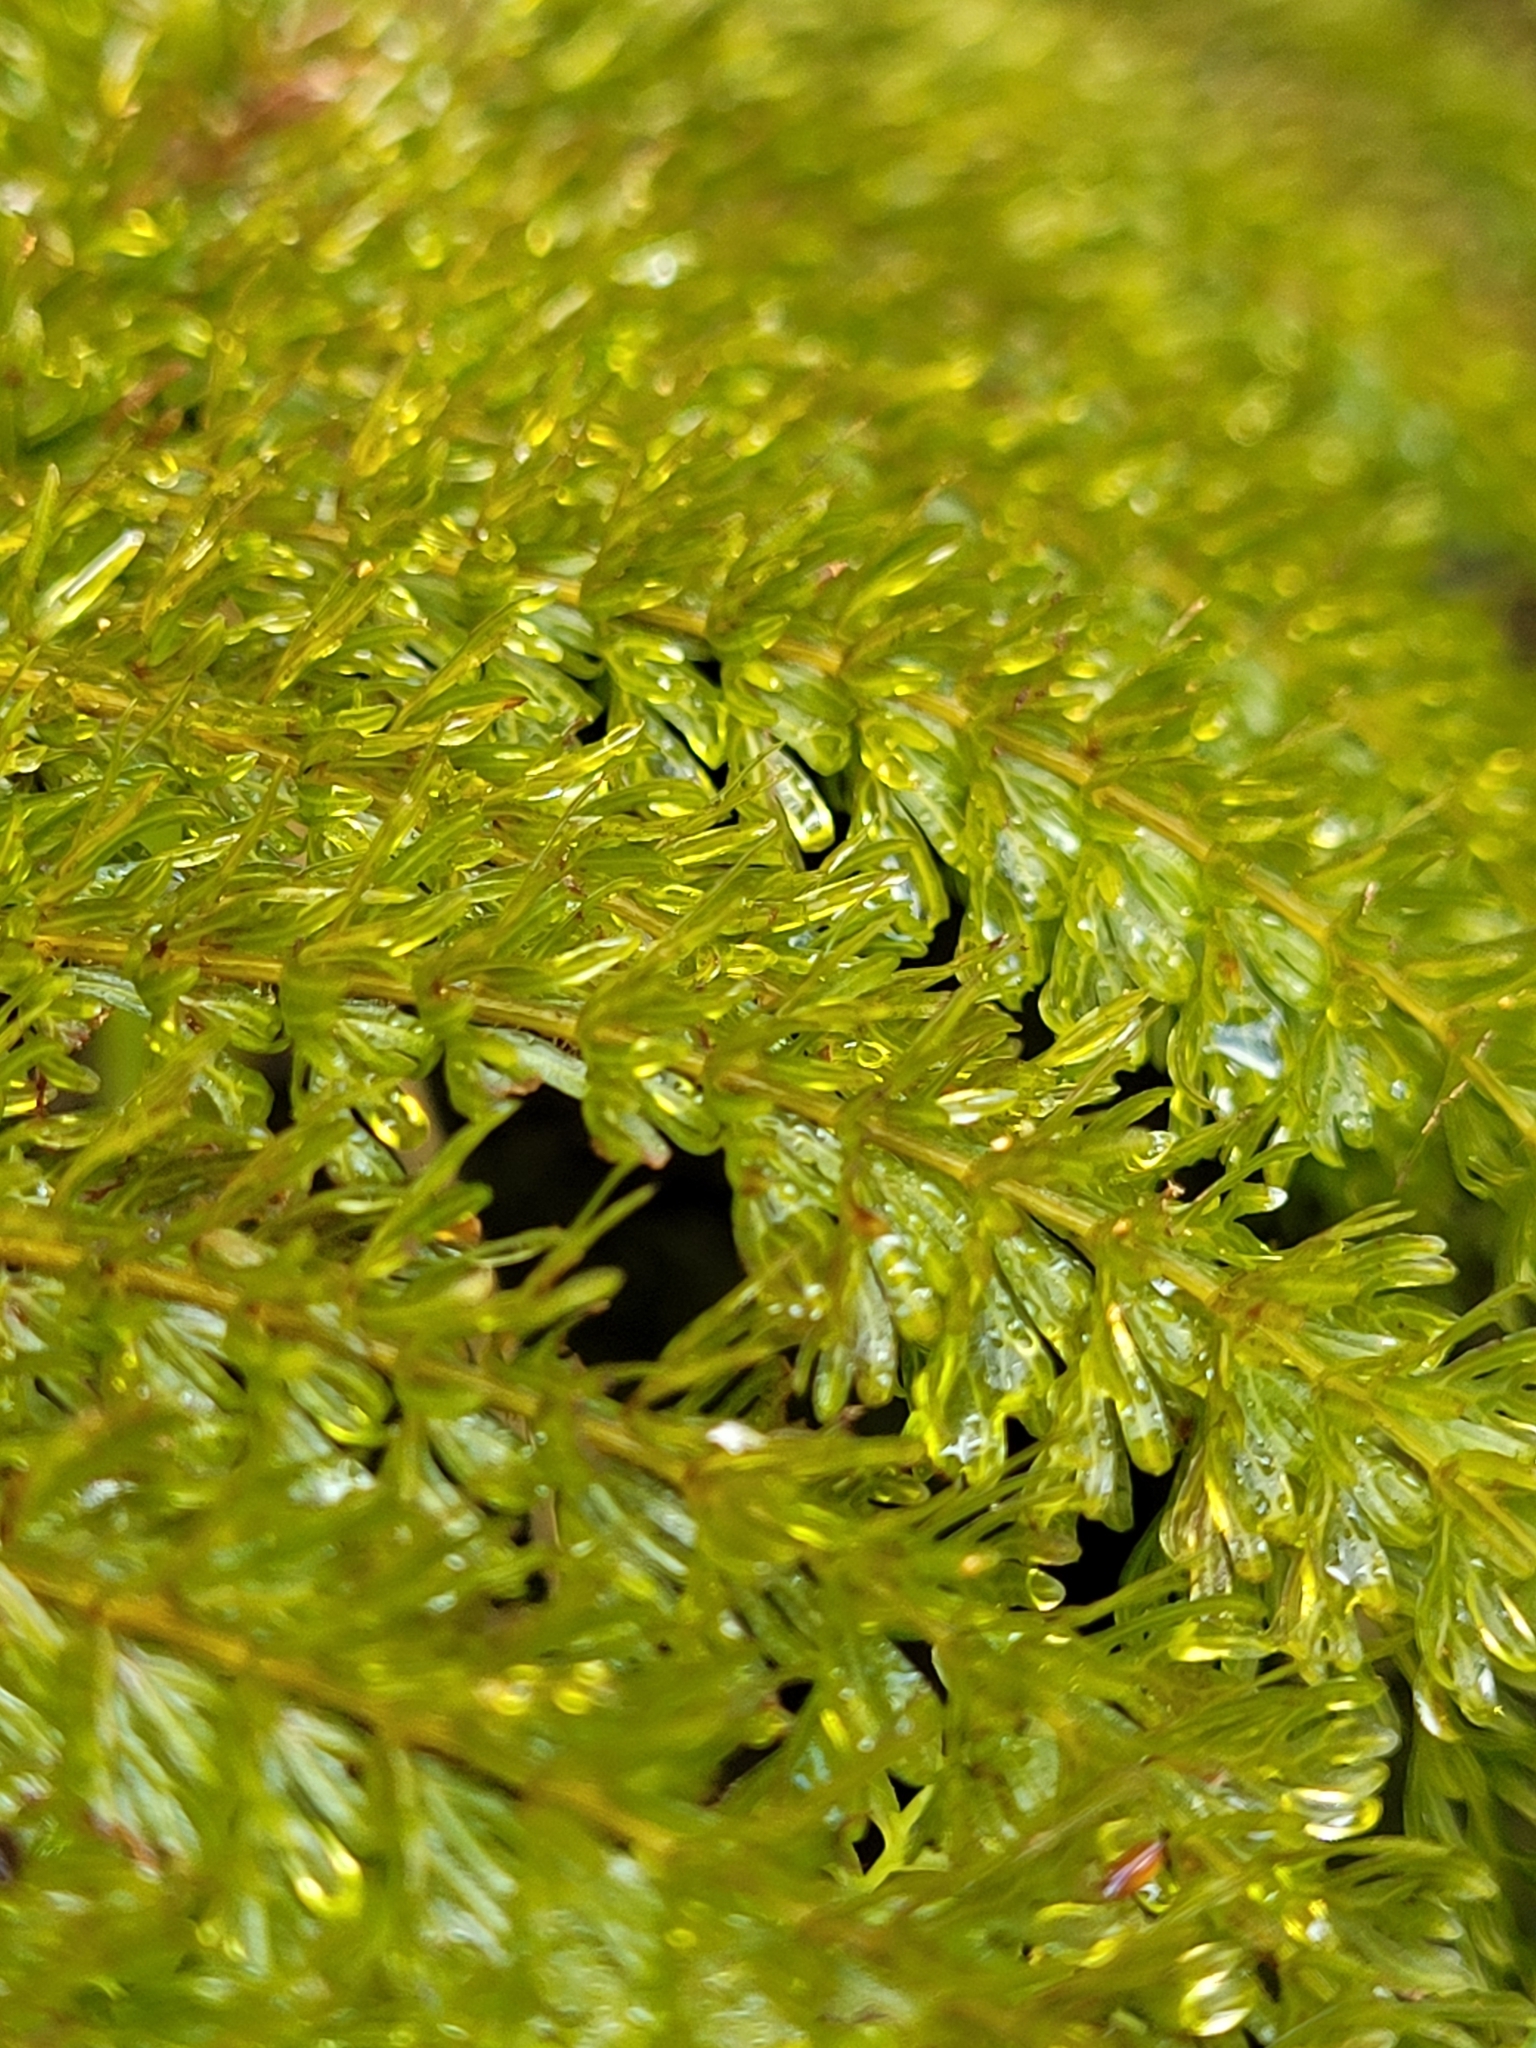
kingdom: Plantae
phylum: Tracheophyta
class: Polypodiopsida
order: Osmundales
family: Osmundaceae
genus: Leptopteris
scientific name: Leptopteris superba
